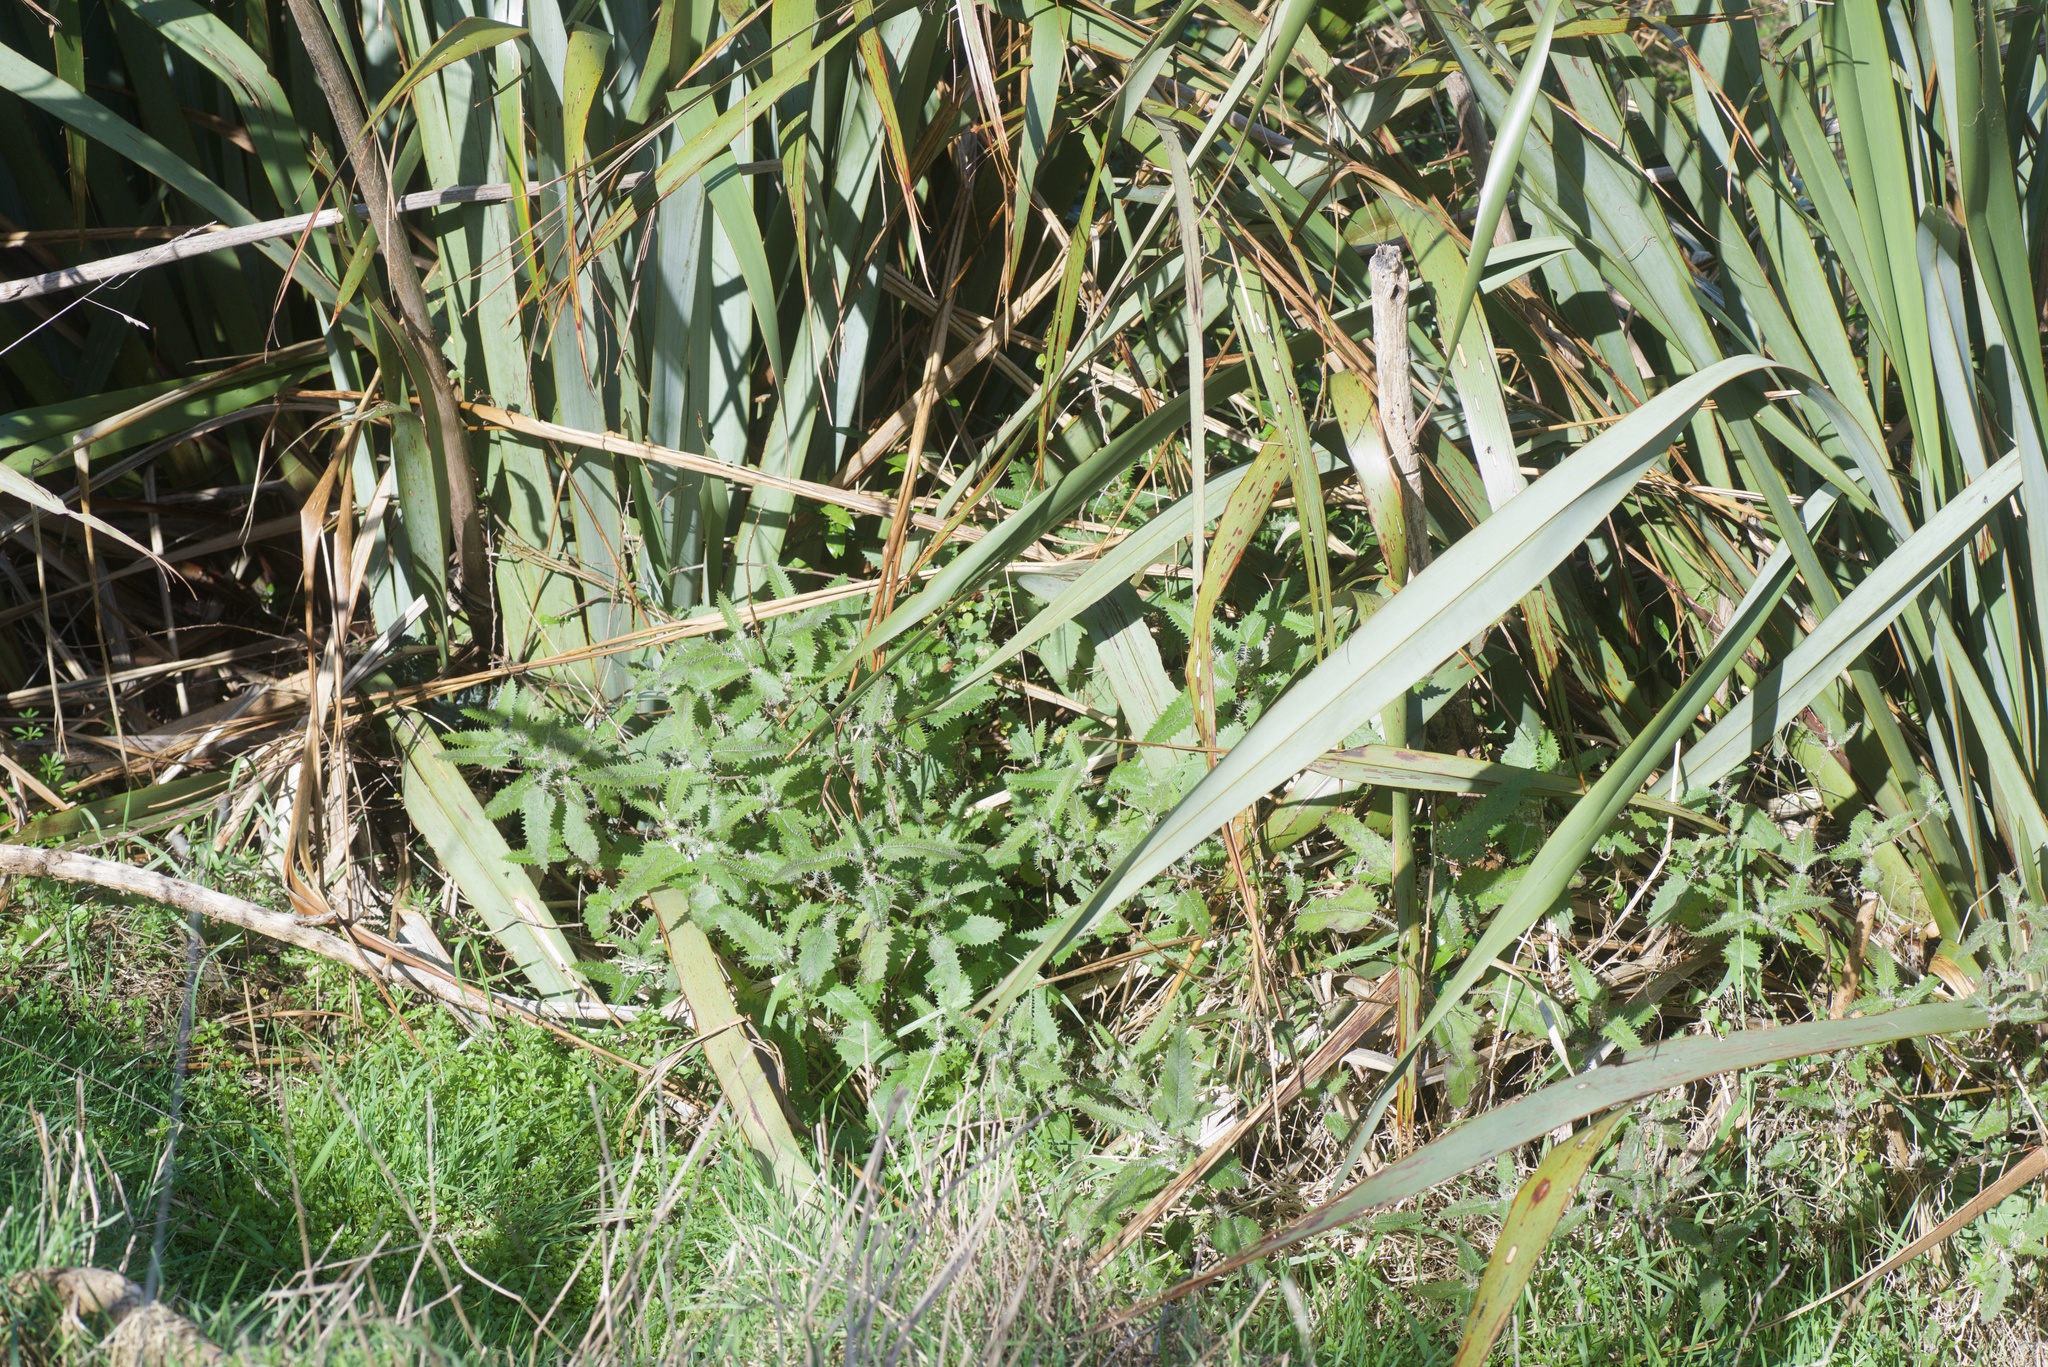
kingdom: Plantae
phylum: Tracheophyta
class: Magnoliopsida
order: Rosales
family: Urticaceae
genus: Urtica
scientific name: Urtica ferox
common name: Tree nettle
